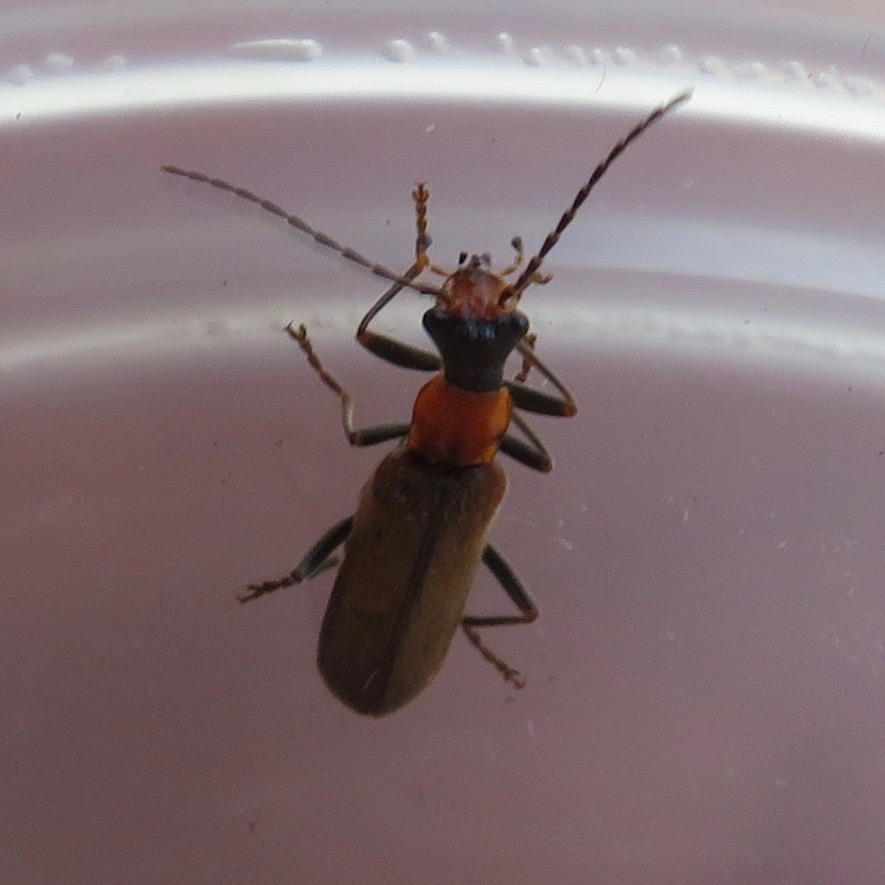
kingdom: Animalia
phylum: Arthropoda
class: Insecta
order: Coleoptera
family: Cantharidae
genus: Dichelotarsus
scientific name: Dichelotarsus cavicollis
